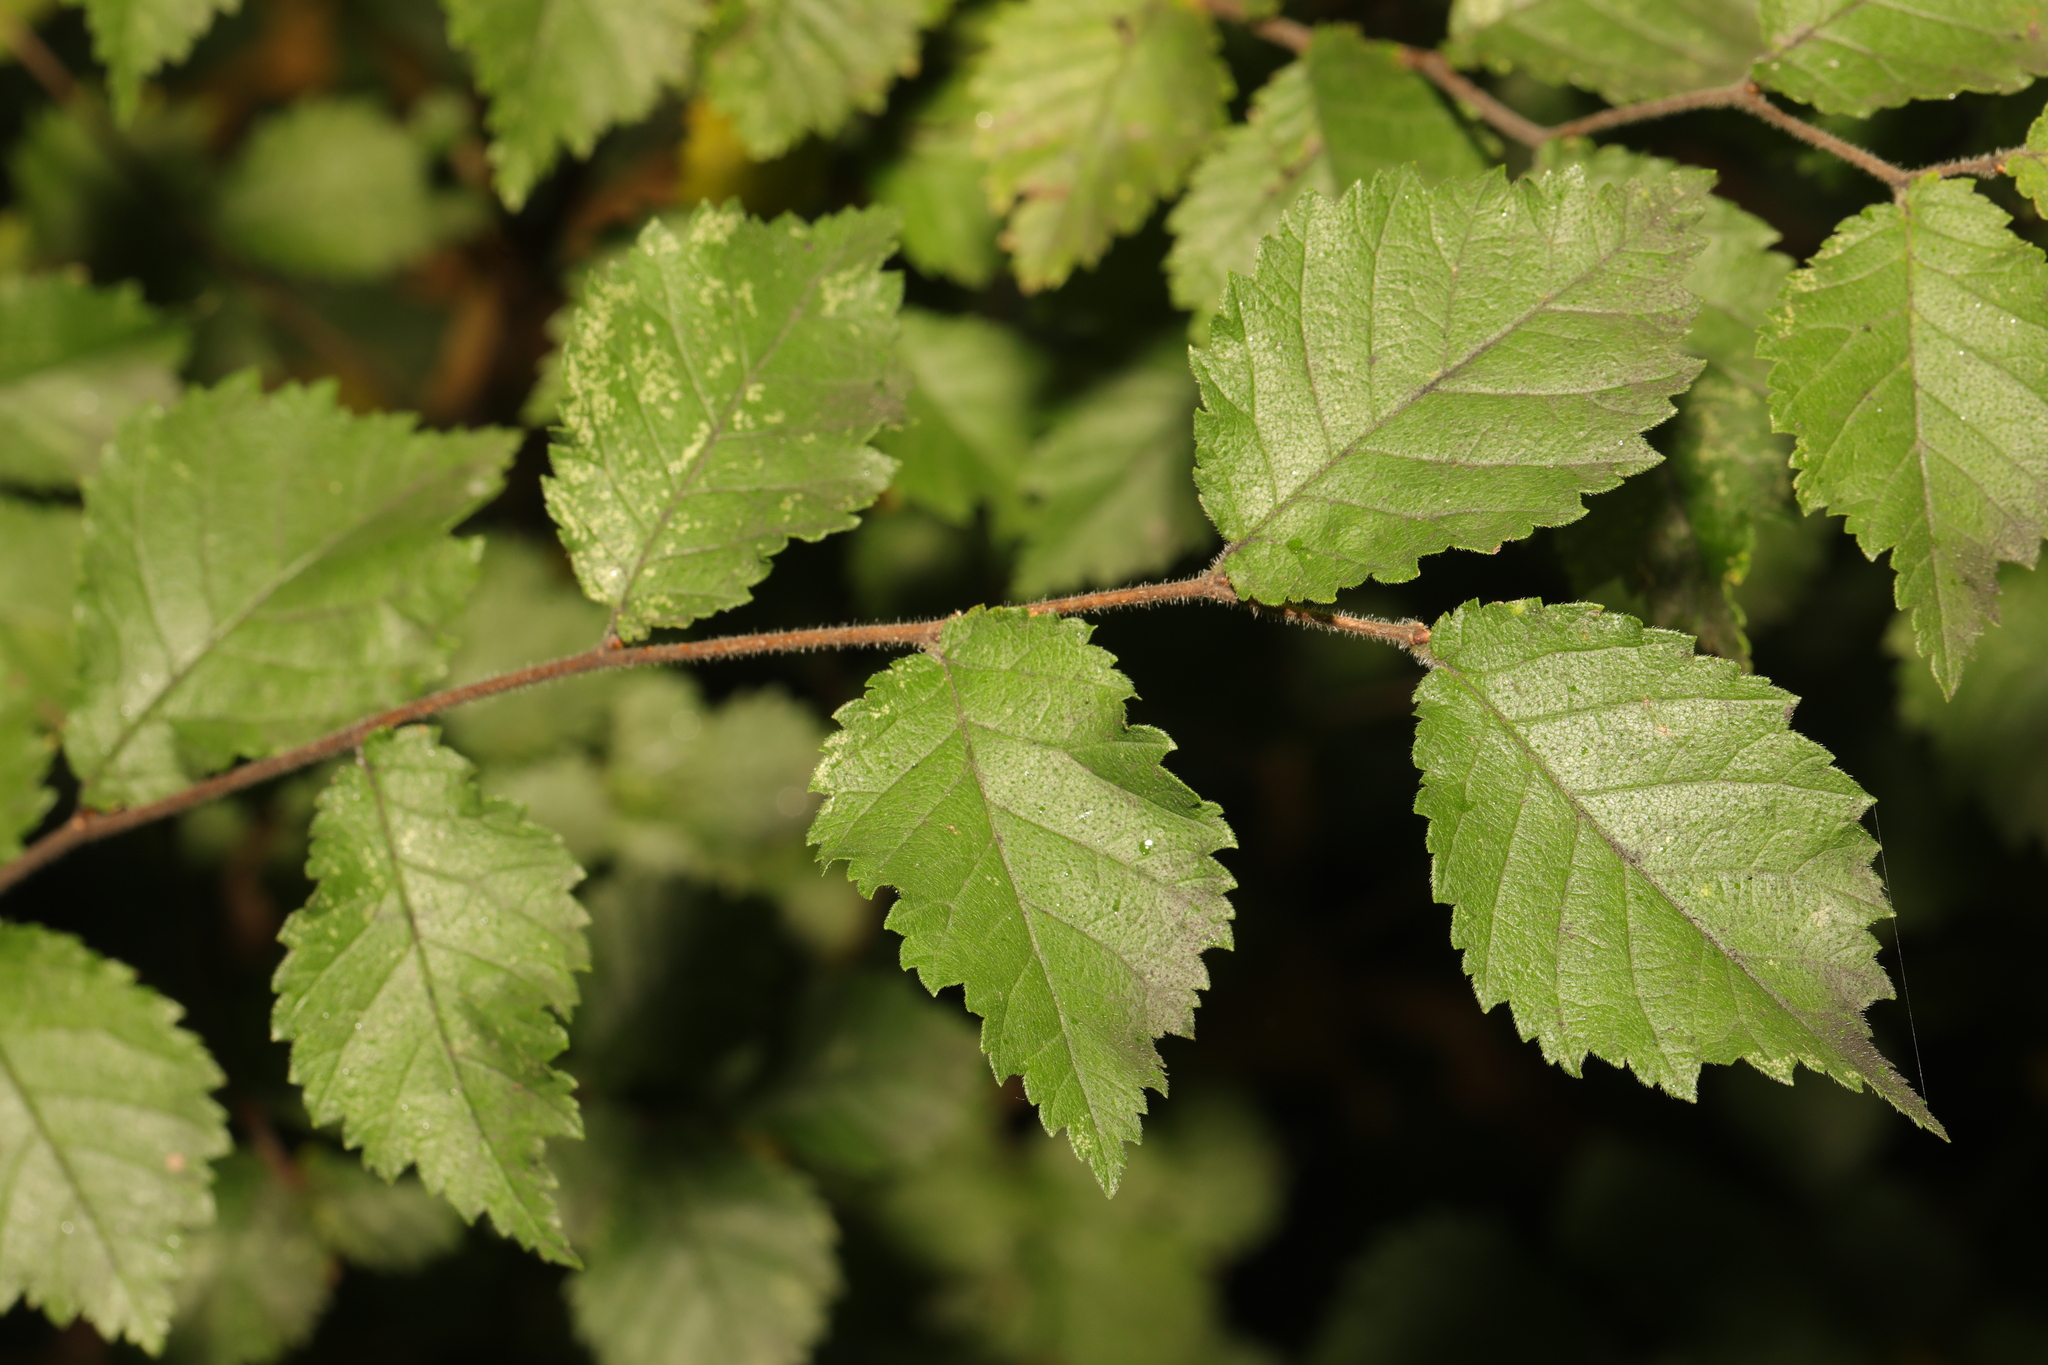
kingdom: Plantae
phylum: Tracheophyta
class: Magnoliopsida
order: Rosales
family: Ulmaceae
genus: Ulmus
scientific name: Ulmus minor
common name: Small-leaved elm
